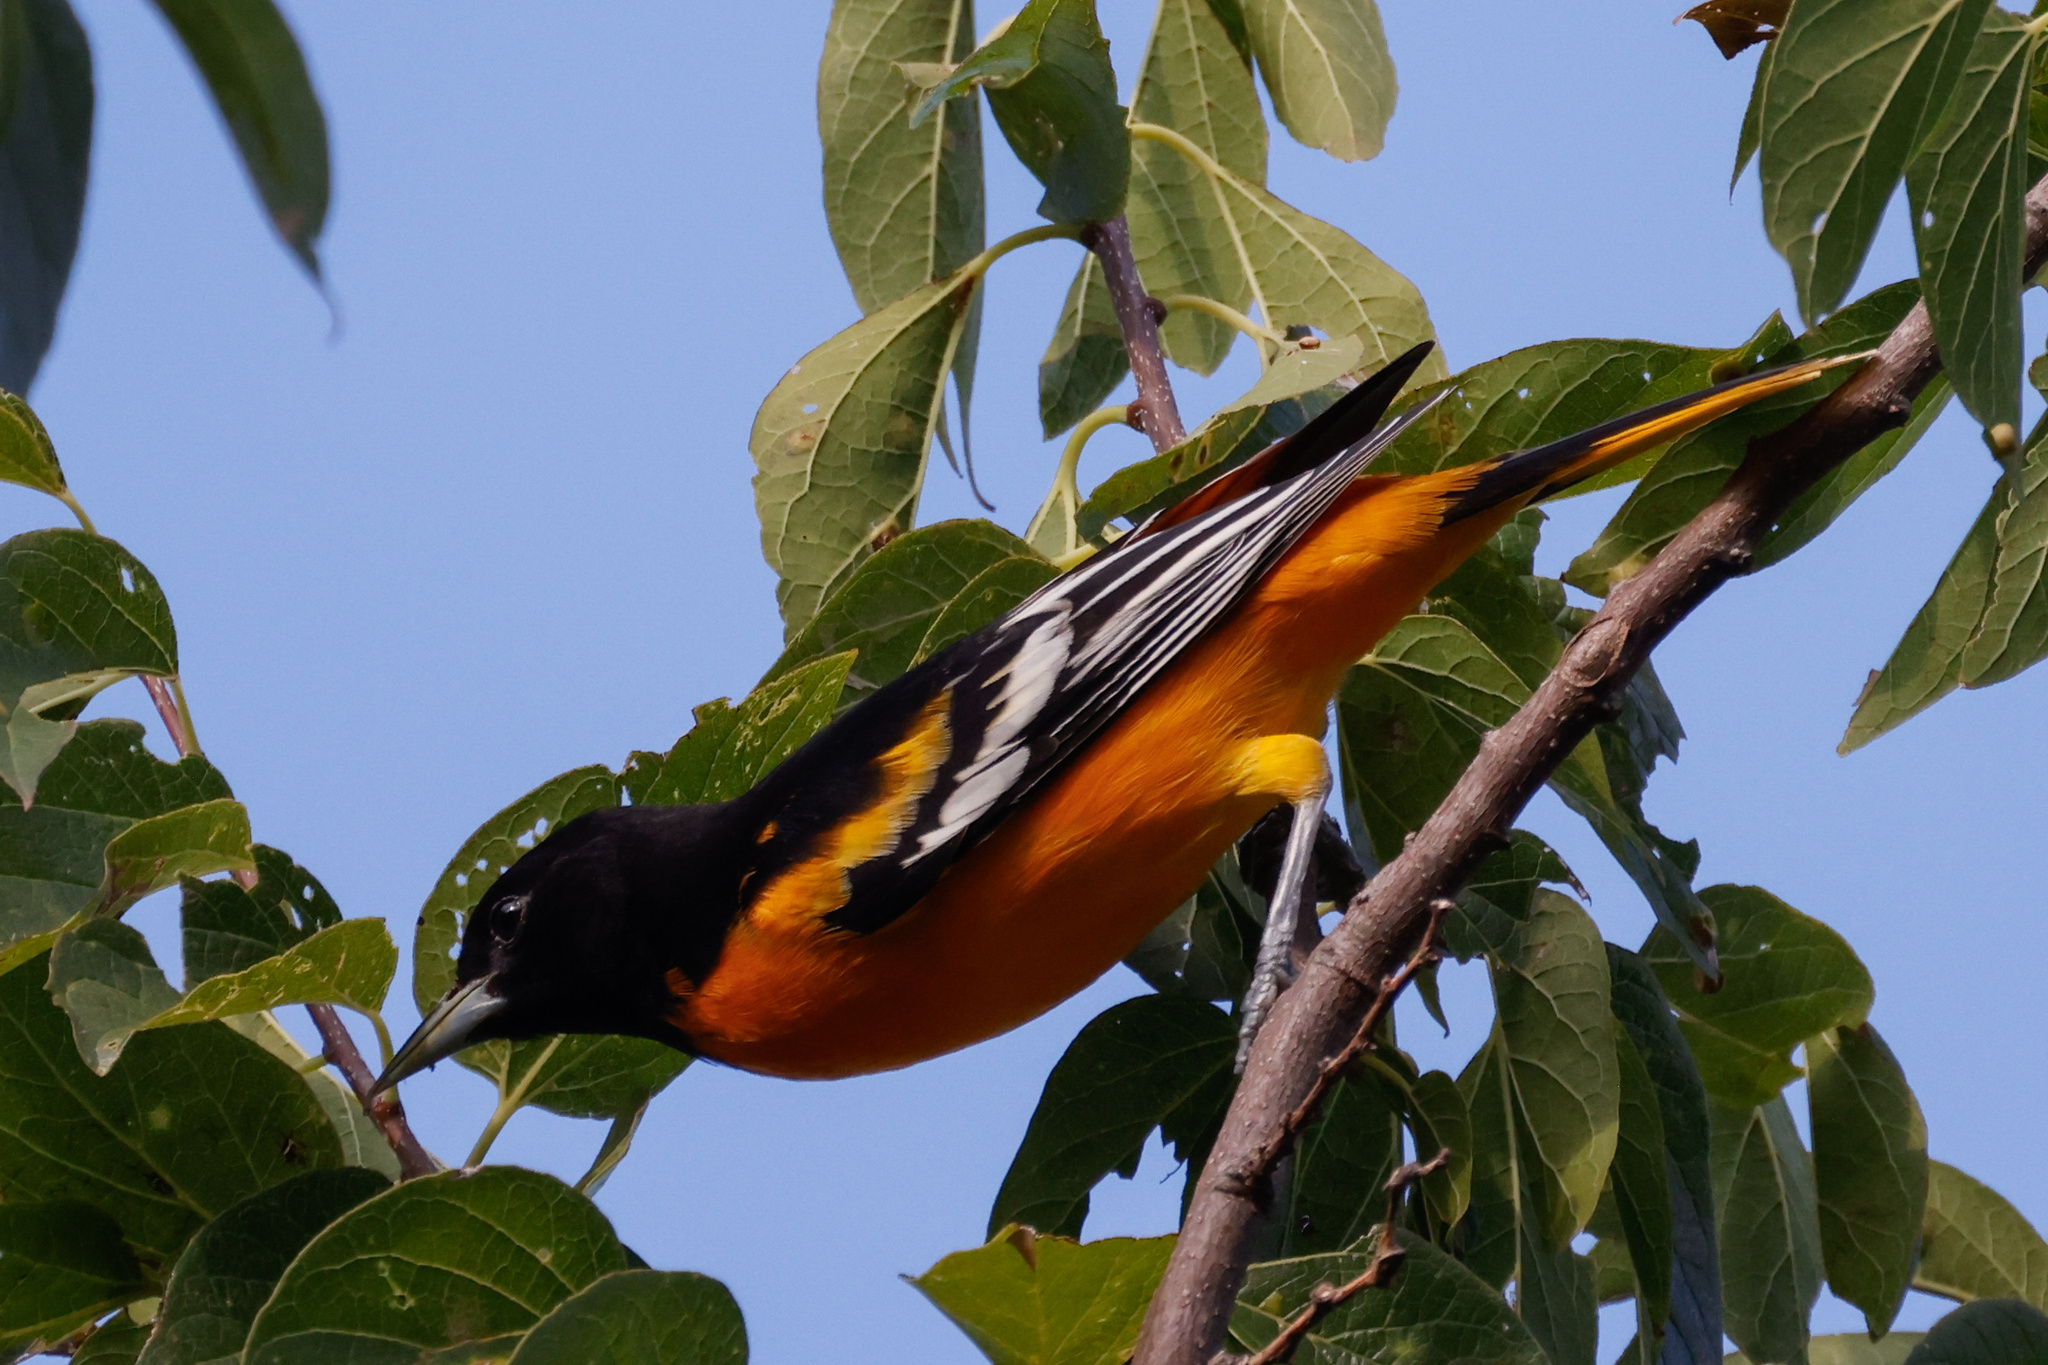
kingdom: Animalia
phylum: Chordata
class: Aves
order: Passeriformes
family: Icteridae
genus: Icterus
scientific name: Icterus galbula
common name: Baltimore oriole
